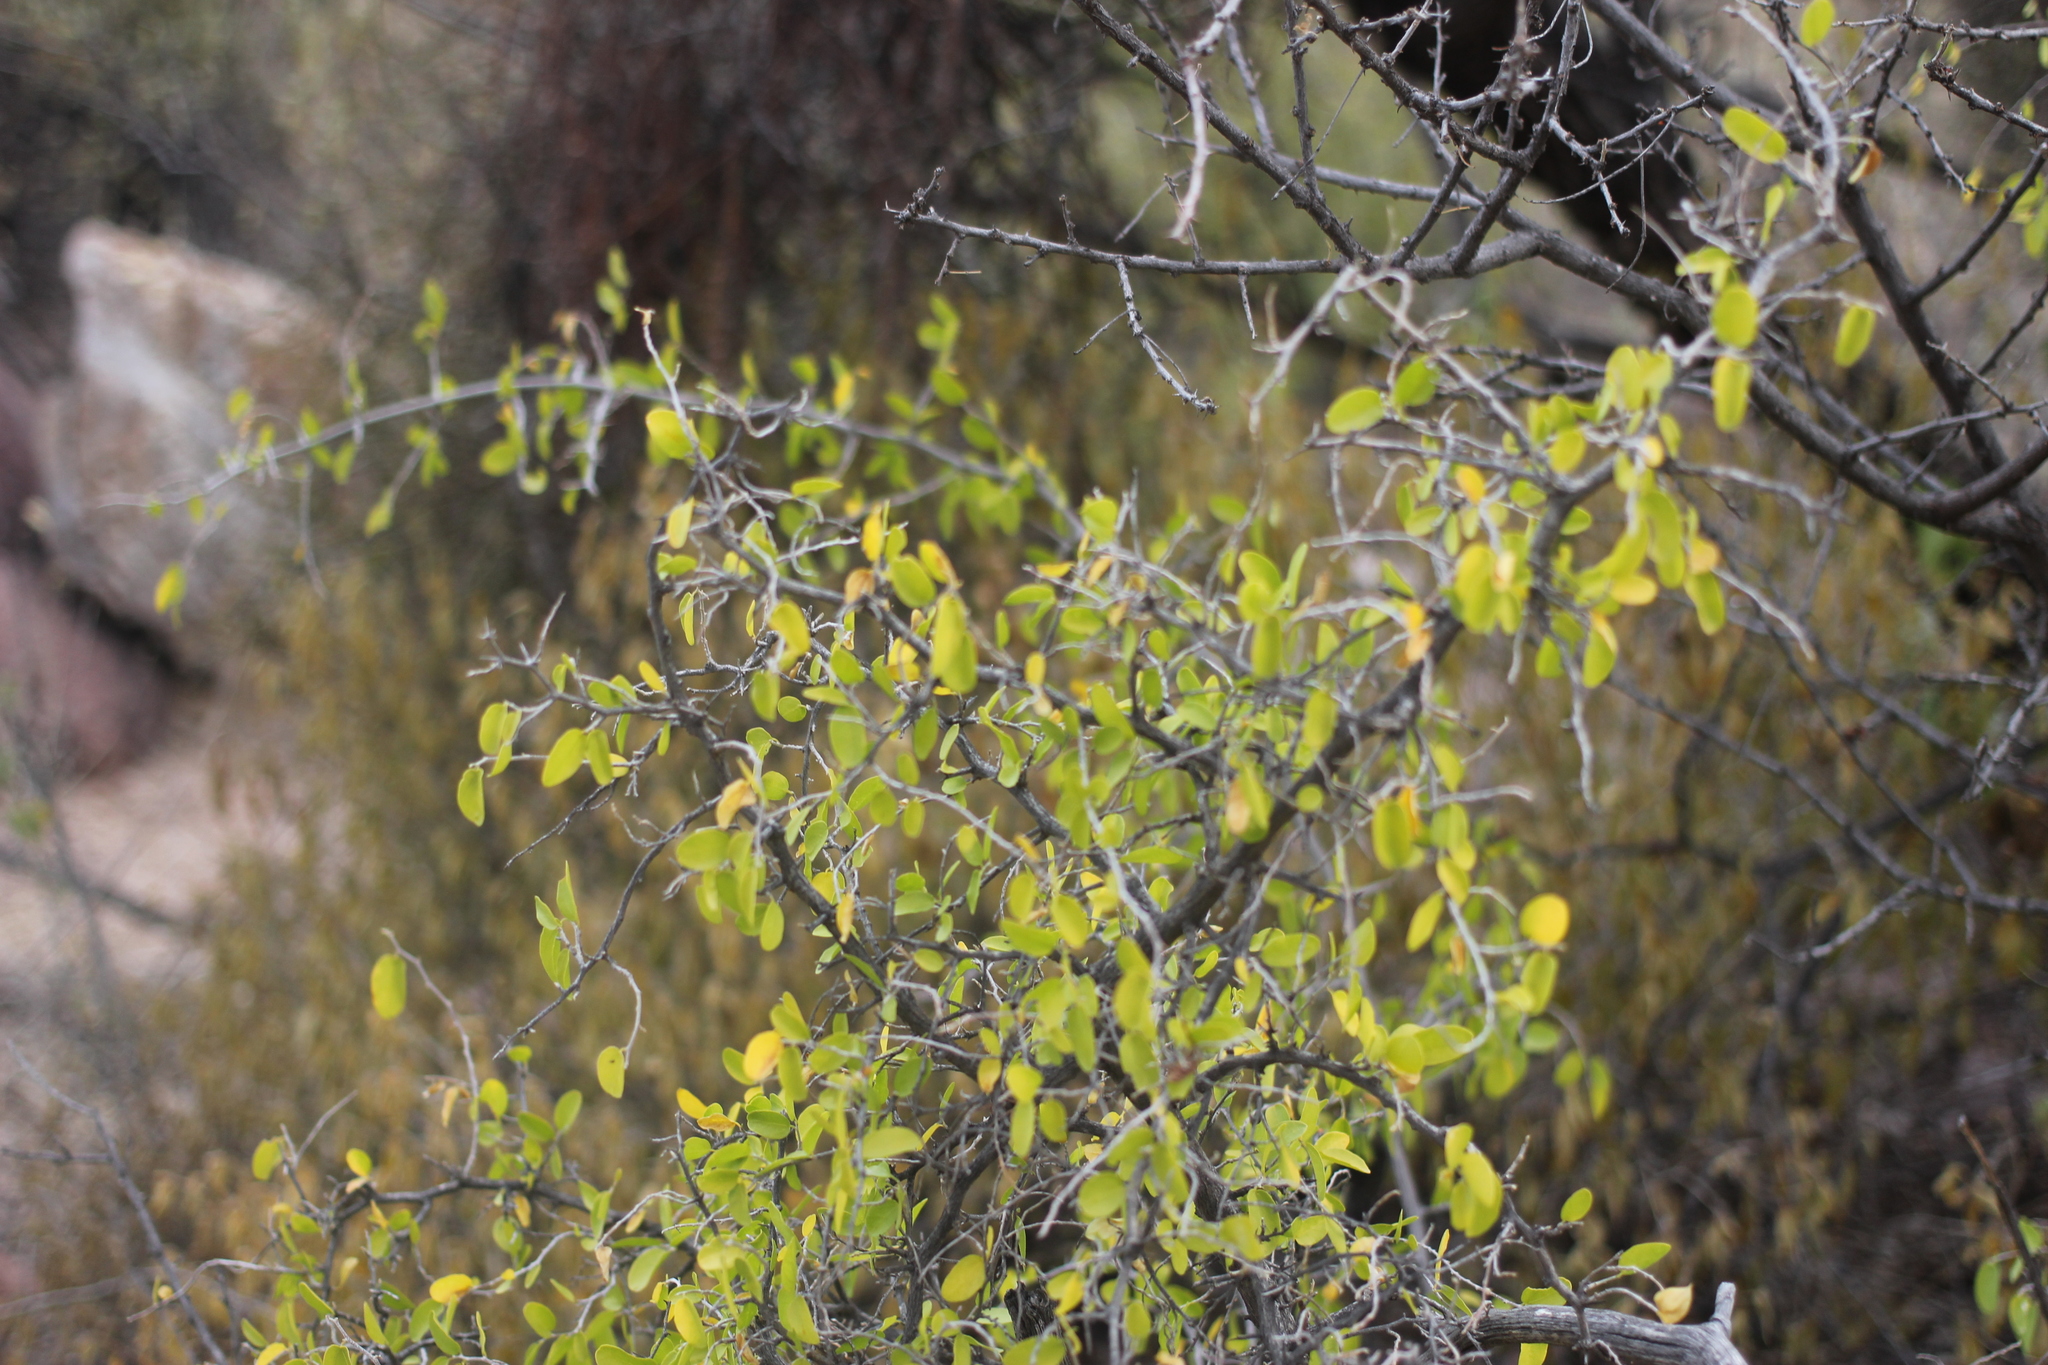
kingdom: Plantae
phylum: Tracheophyta
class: Magnoliopsida
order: Rosales
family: Cannabaceae
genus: Celtis
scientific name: Celtis pallida
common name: Desert hackberry
